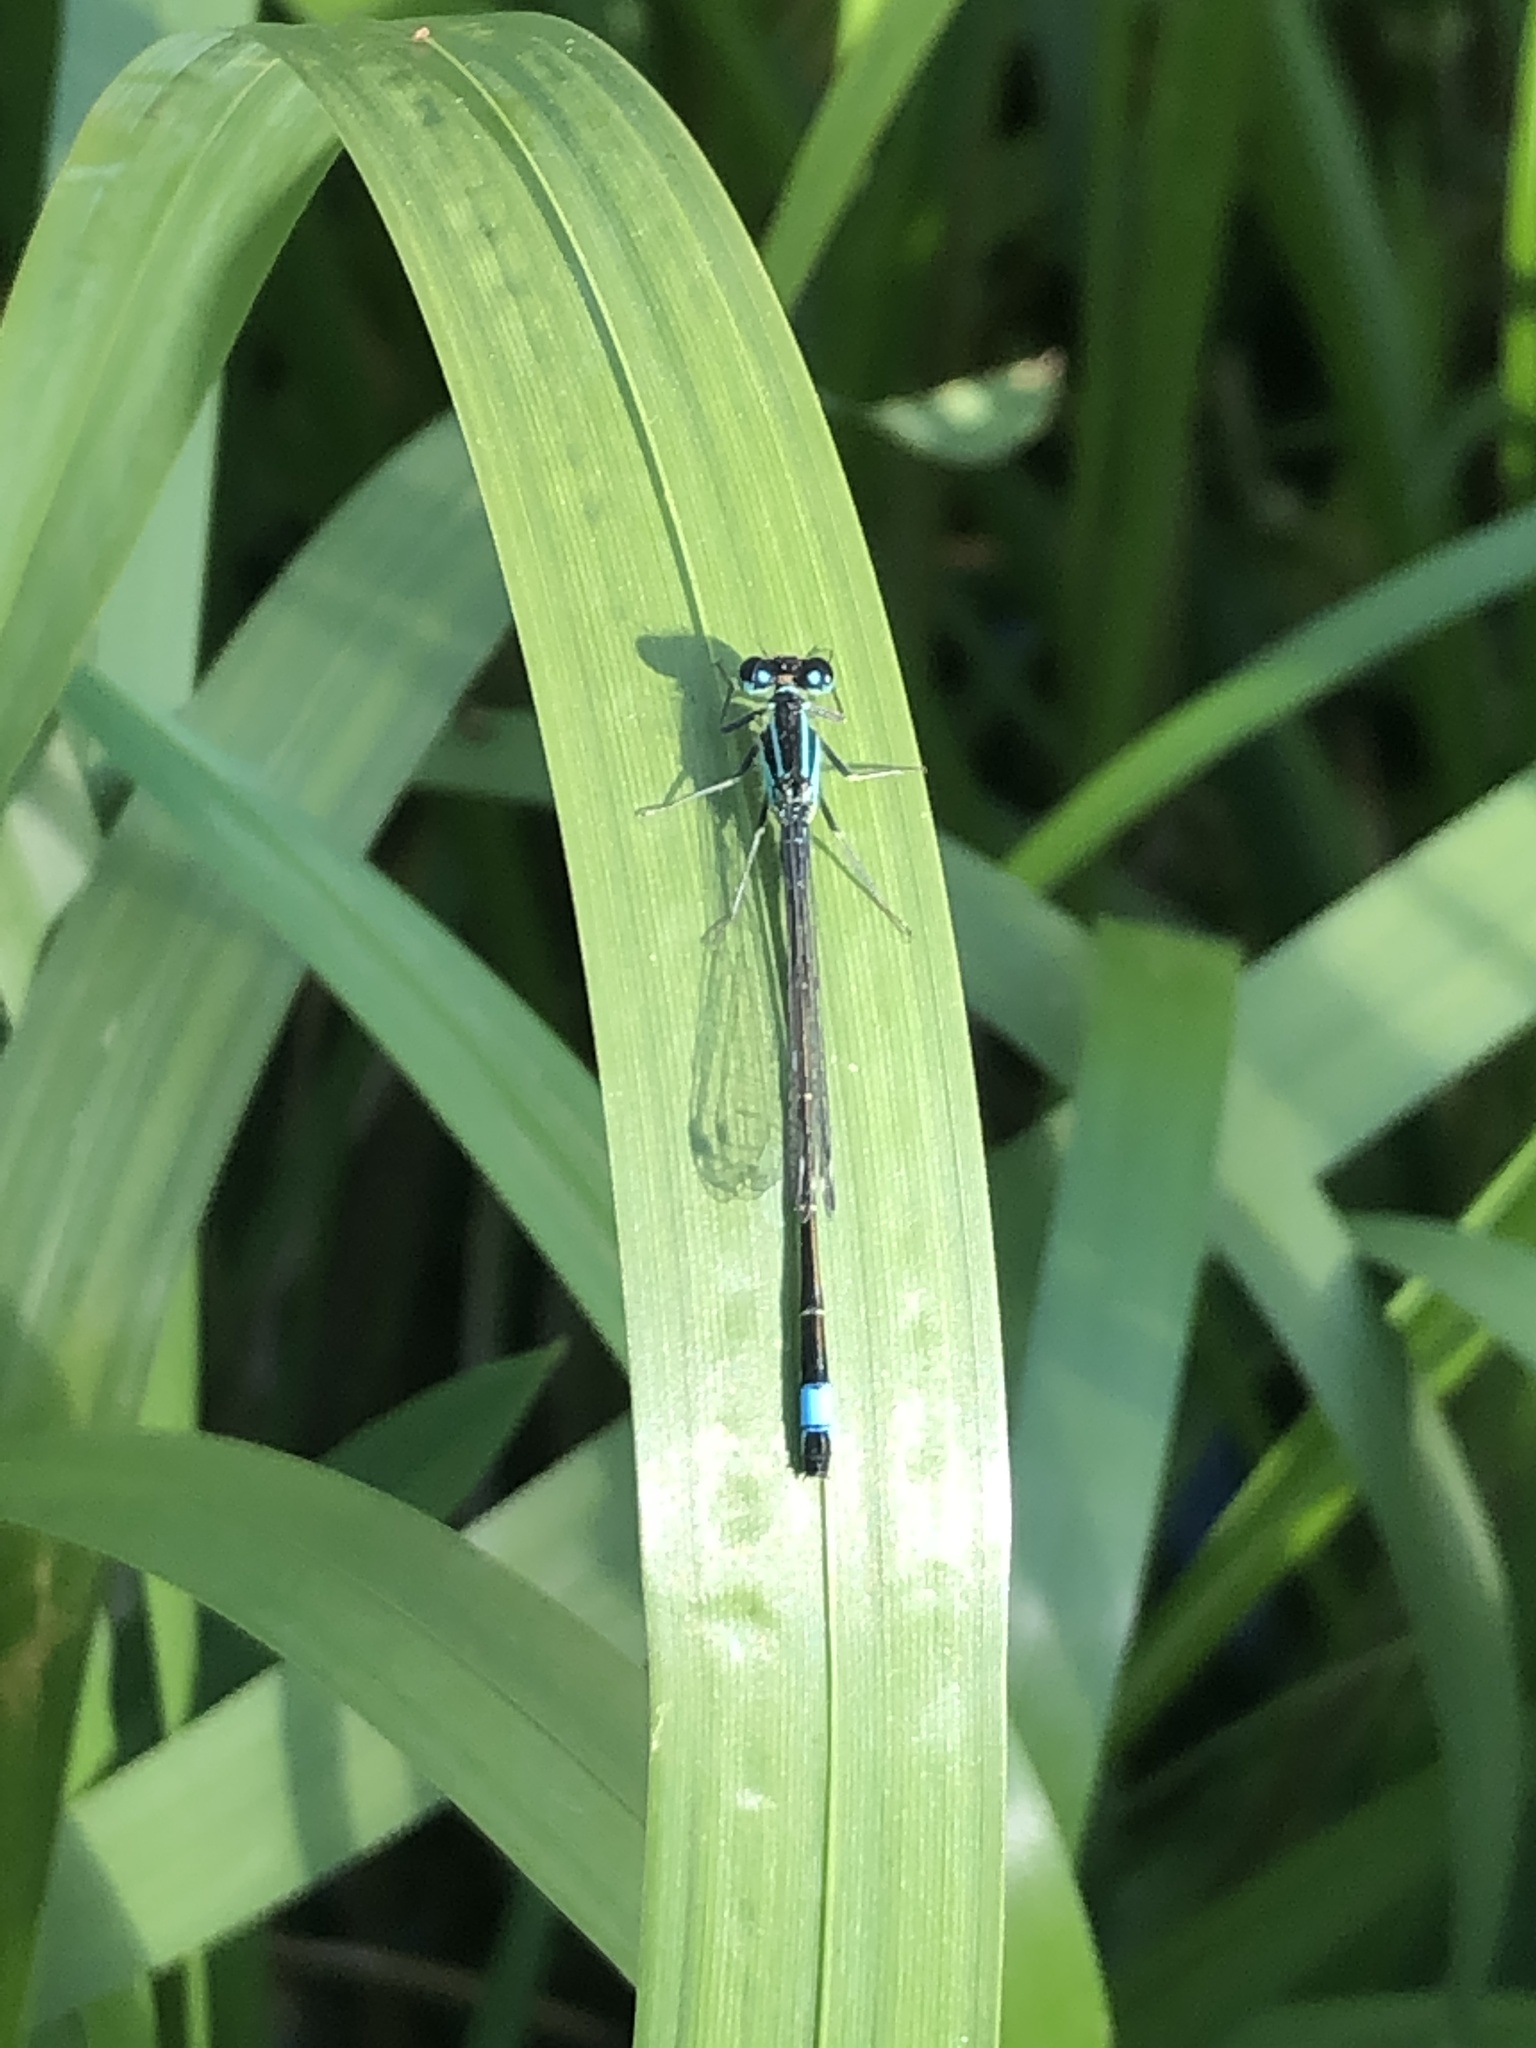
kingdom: Animalia
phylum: Arthropoda
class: Insecta
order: Odonata
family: Coenagrionidae
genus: Ischnura
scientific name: Ischnura elegans
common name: Blue-tailed damselfly
